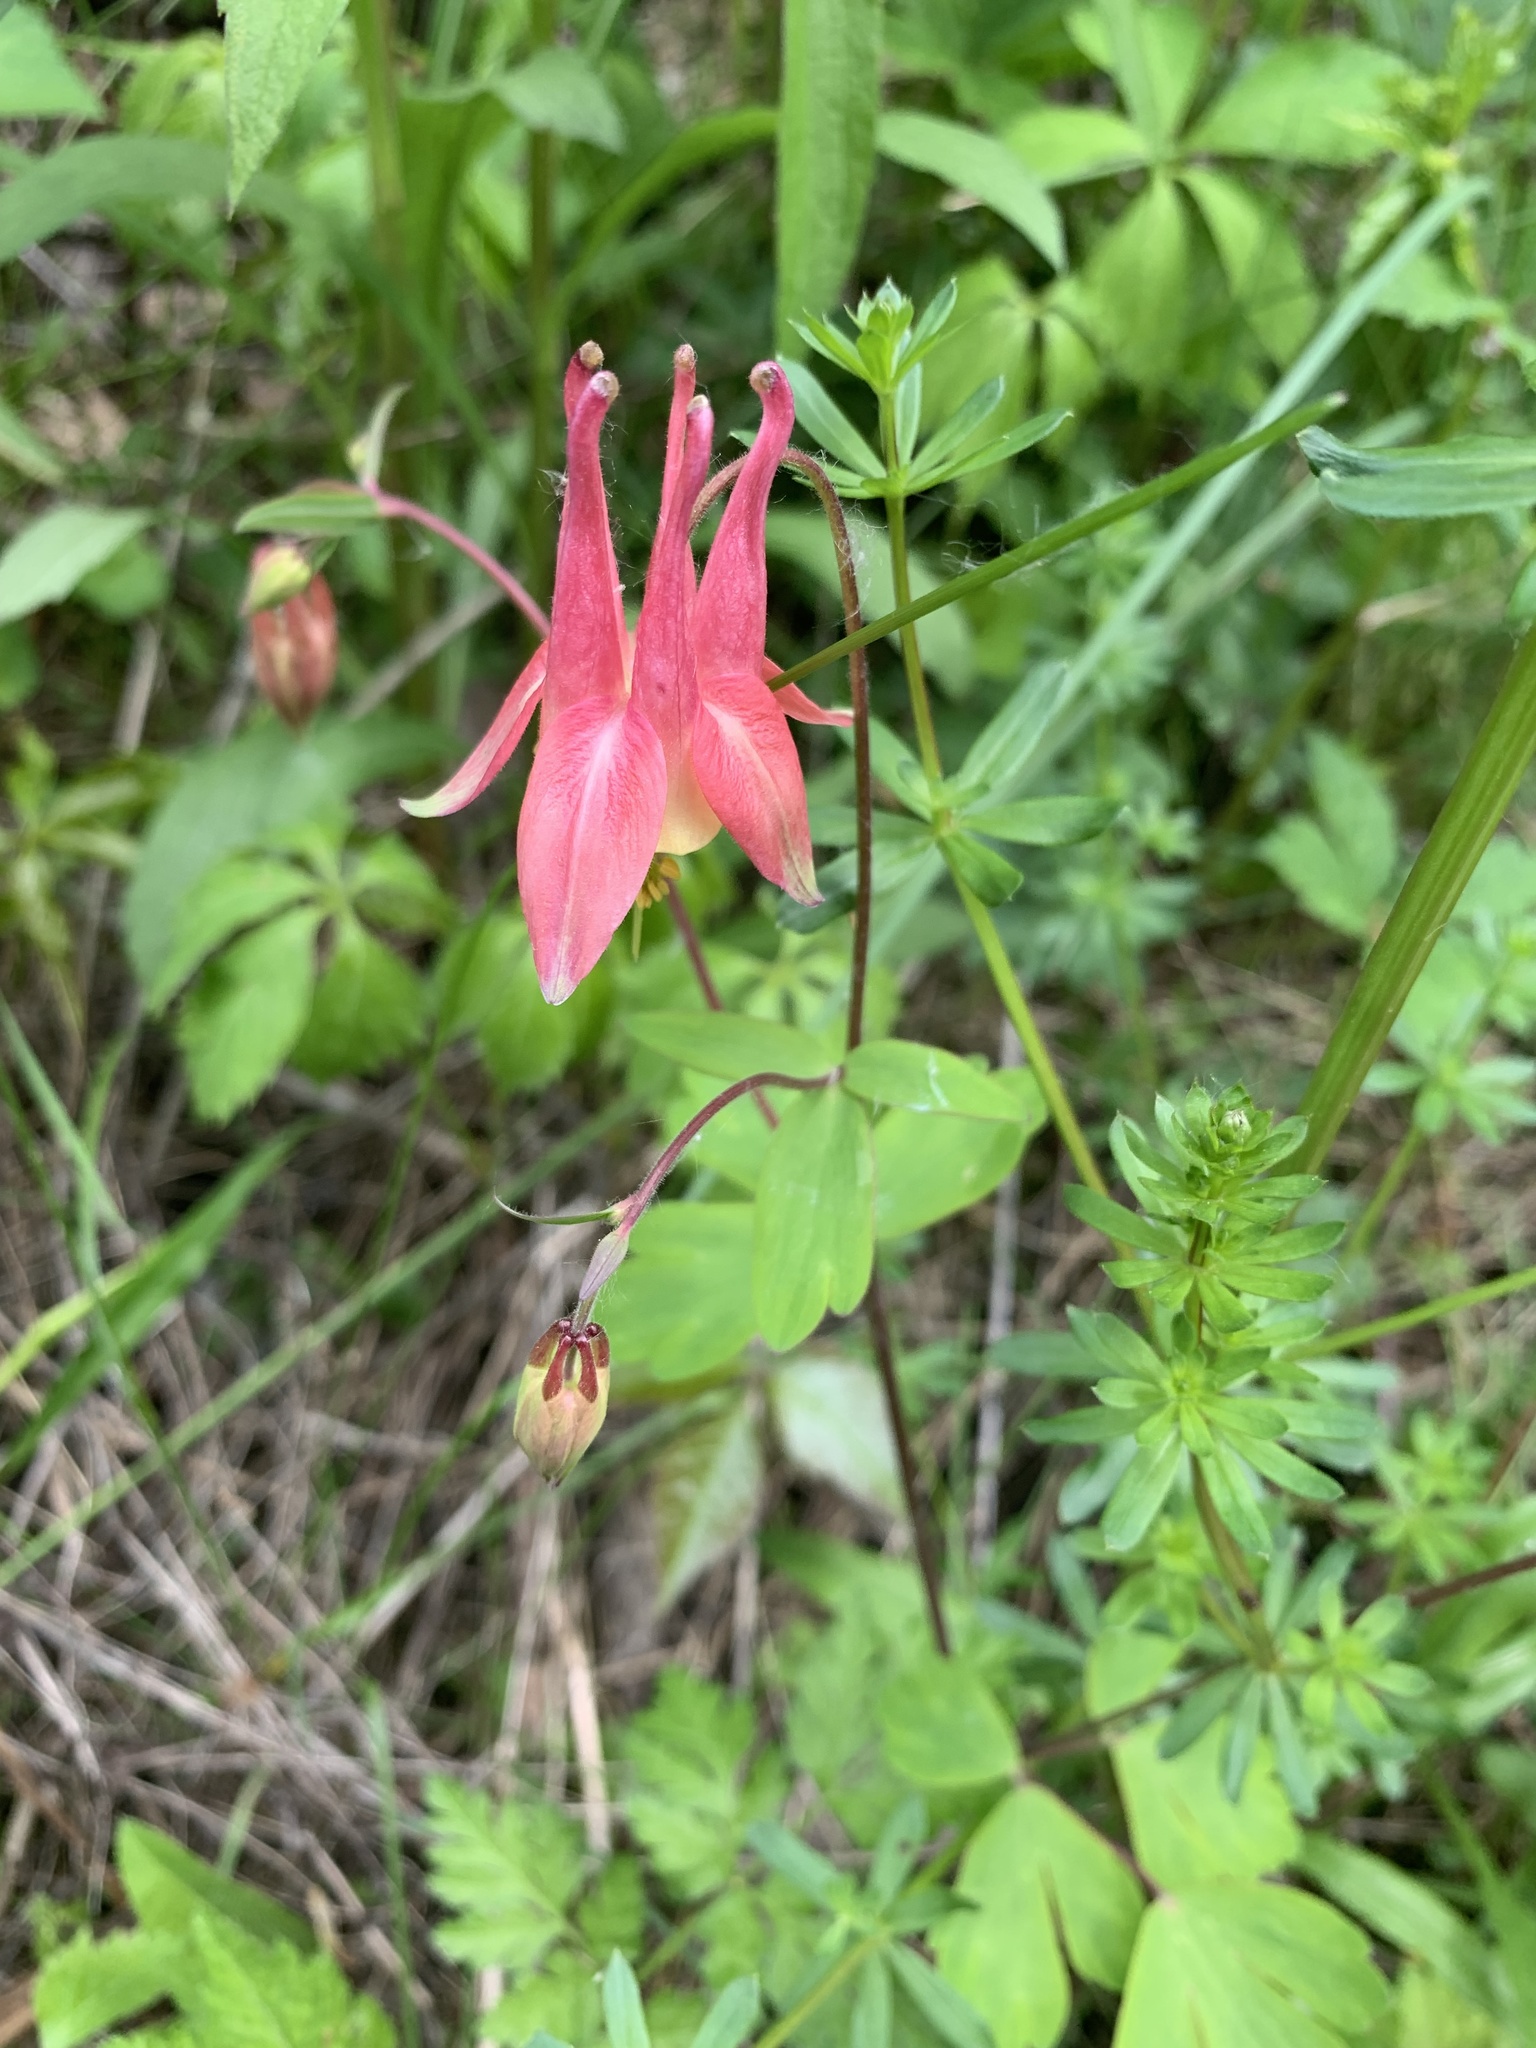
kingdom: Plantae
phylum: Tracheophyta
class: Magnoliopsida
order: Ranunculales
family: Ranunculaceae
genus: Aquilegia
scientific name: Aquilegia canadensis
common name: American columbine
